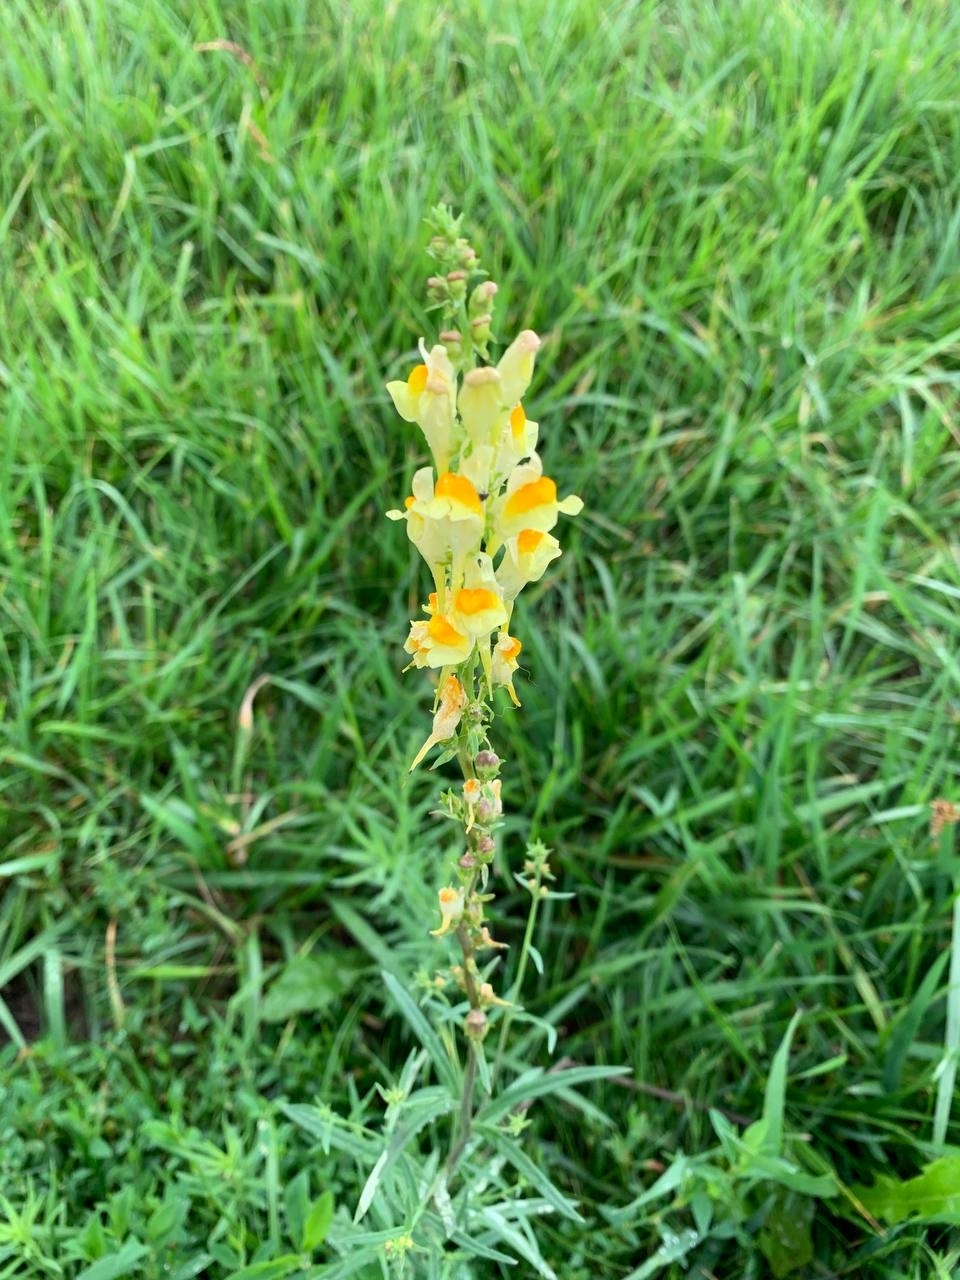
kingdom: Plantae
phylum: Tracheophyta
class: Magnoliopsida
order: Lamiales
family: Plantaginaceae
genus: Linaria
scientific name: Linaria vulgaris
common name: Butter and eggs
